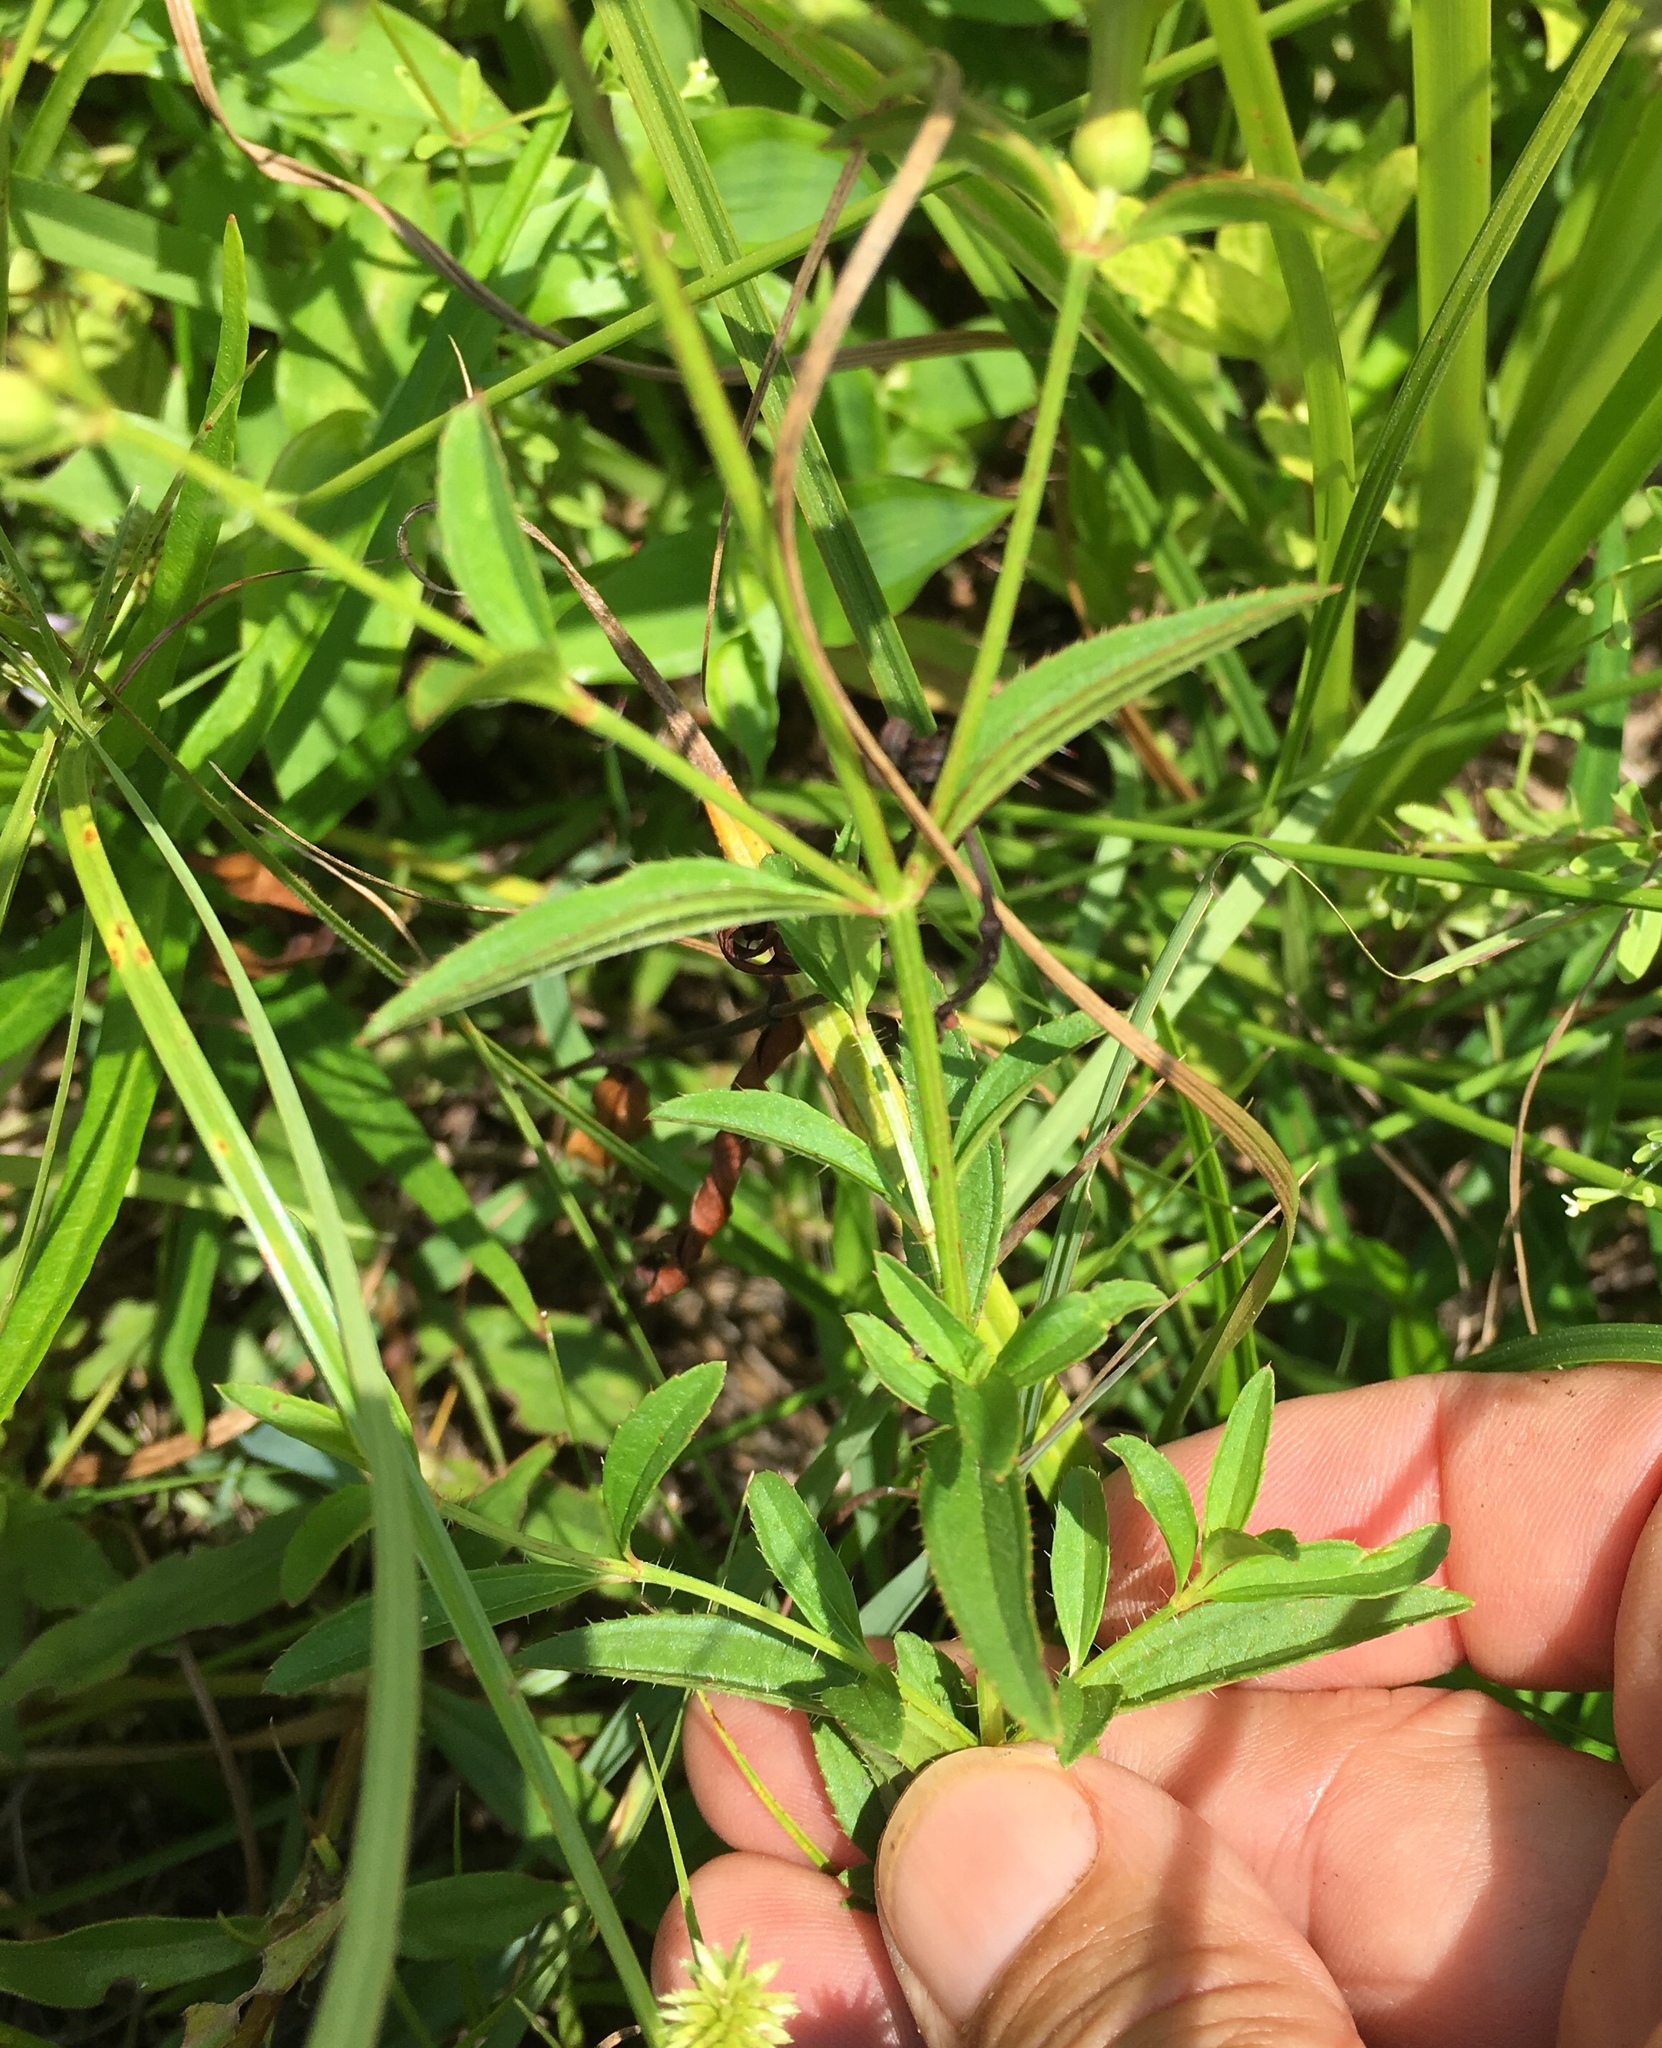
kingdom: Plantae
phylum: Tracheophyta
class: Magnoliopsida
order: Myrtales
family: Melastomataceae
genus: Rhexia
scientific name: Rhexia mariana
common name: Dull meadow-pitcher
